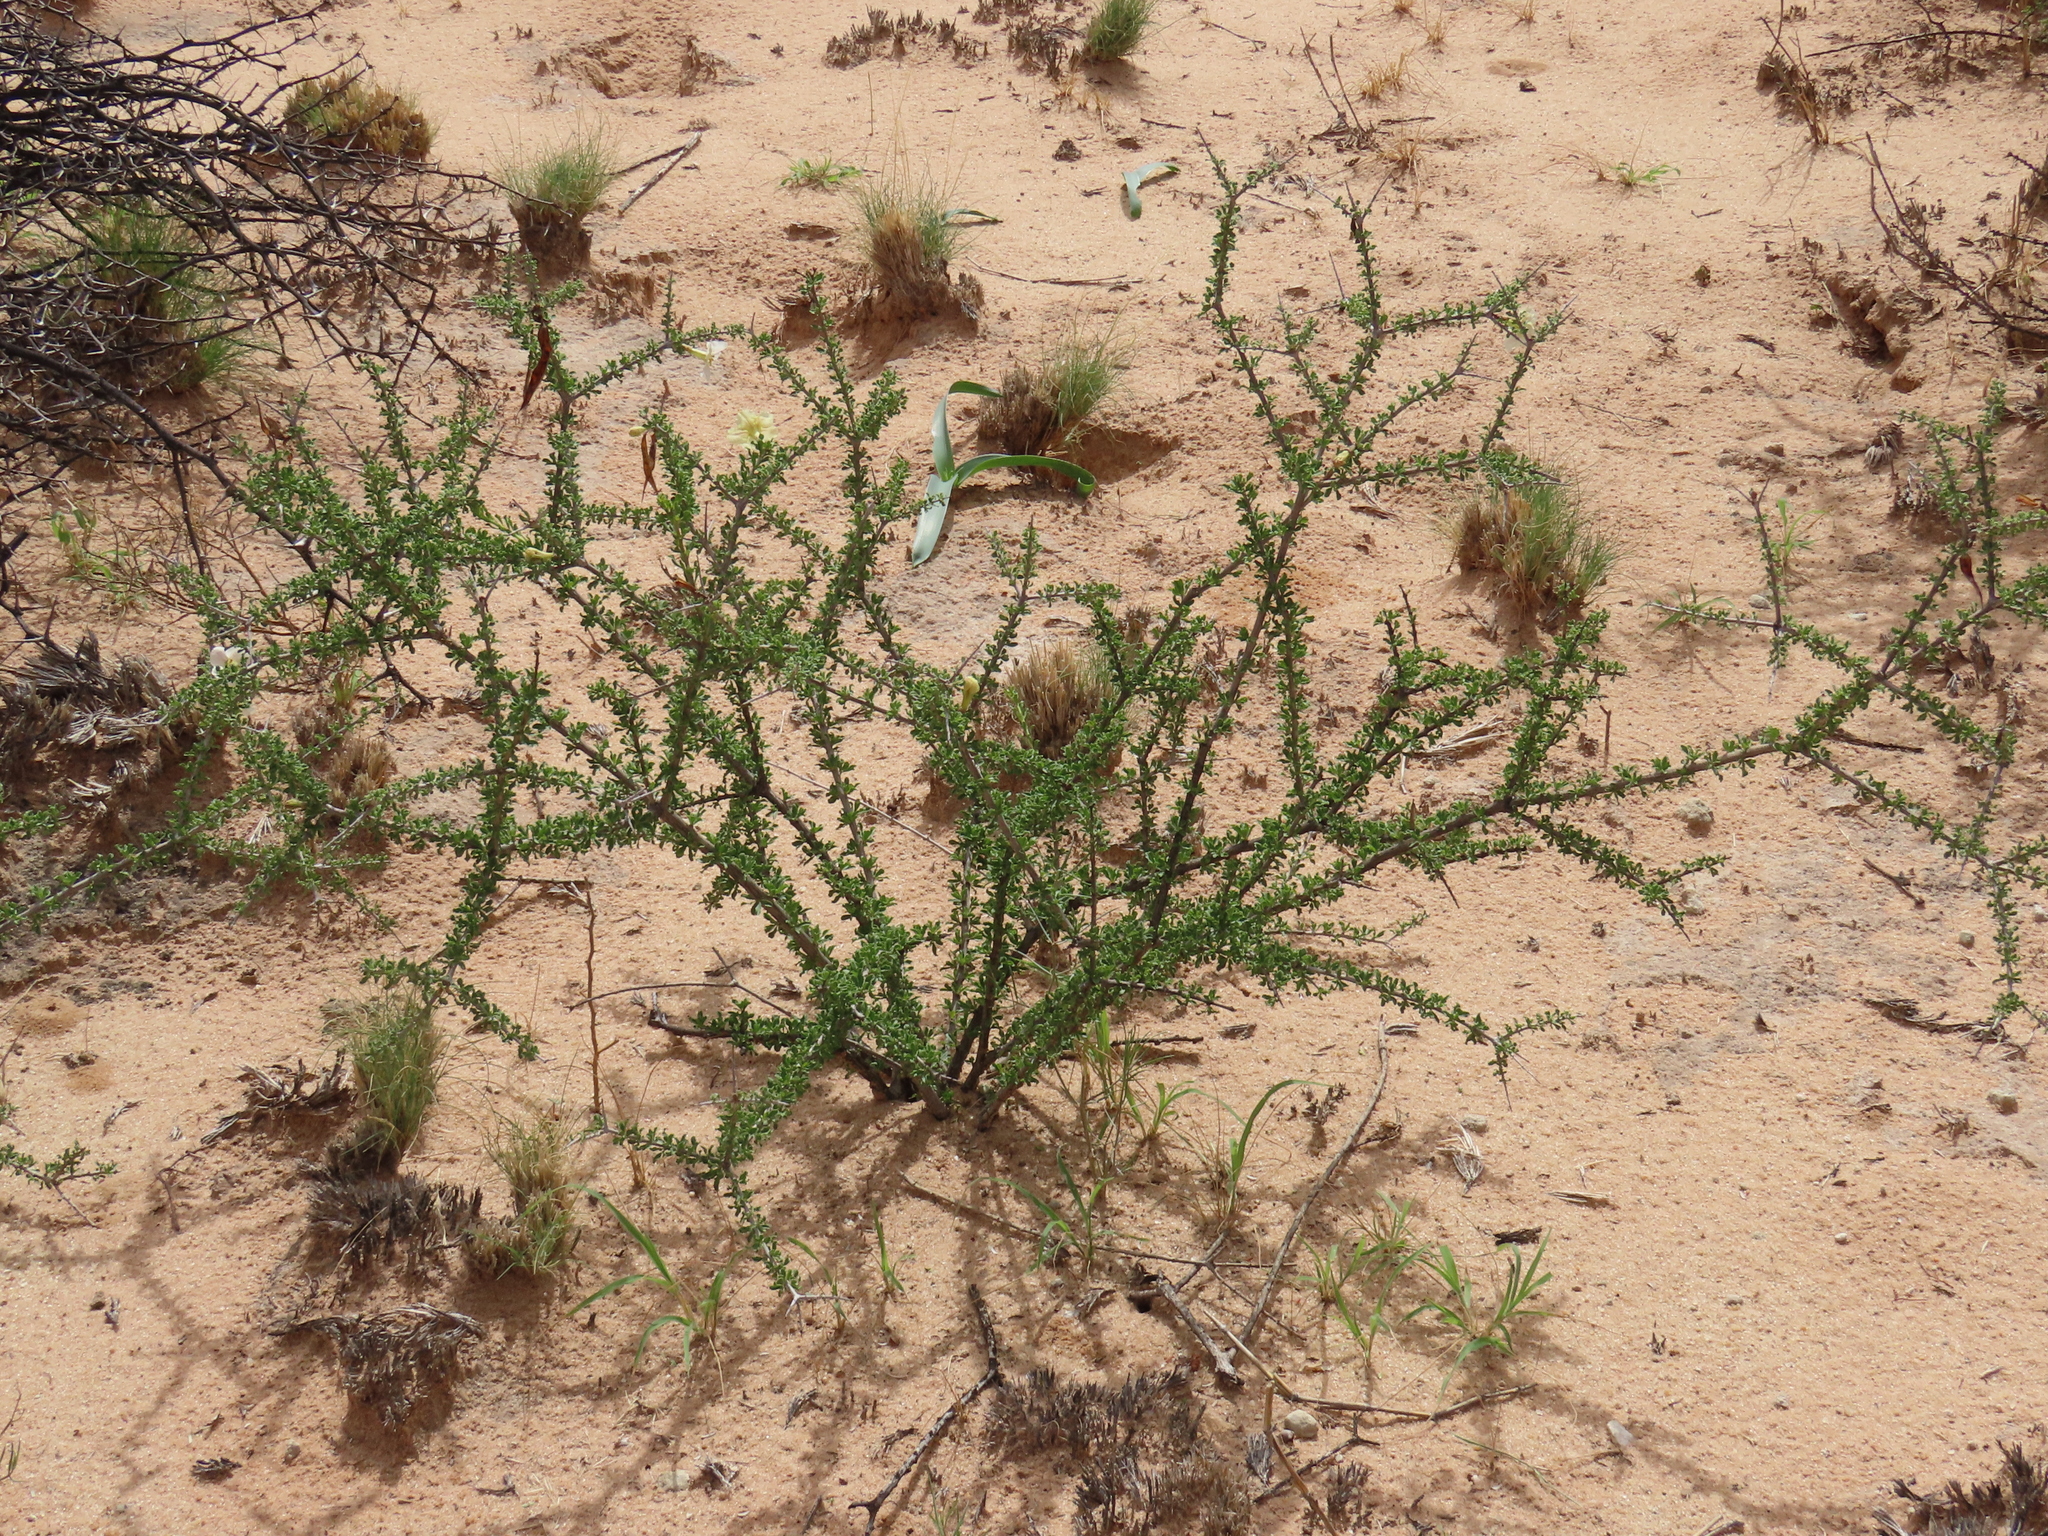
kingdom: Plantae
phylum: Tracheophyta
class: Magnoliopsida
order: Lamiales
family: Bignoniaceae
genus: Rhigozum
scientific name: Rhigozum trichotomum
